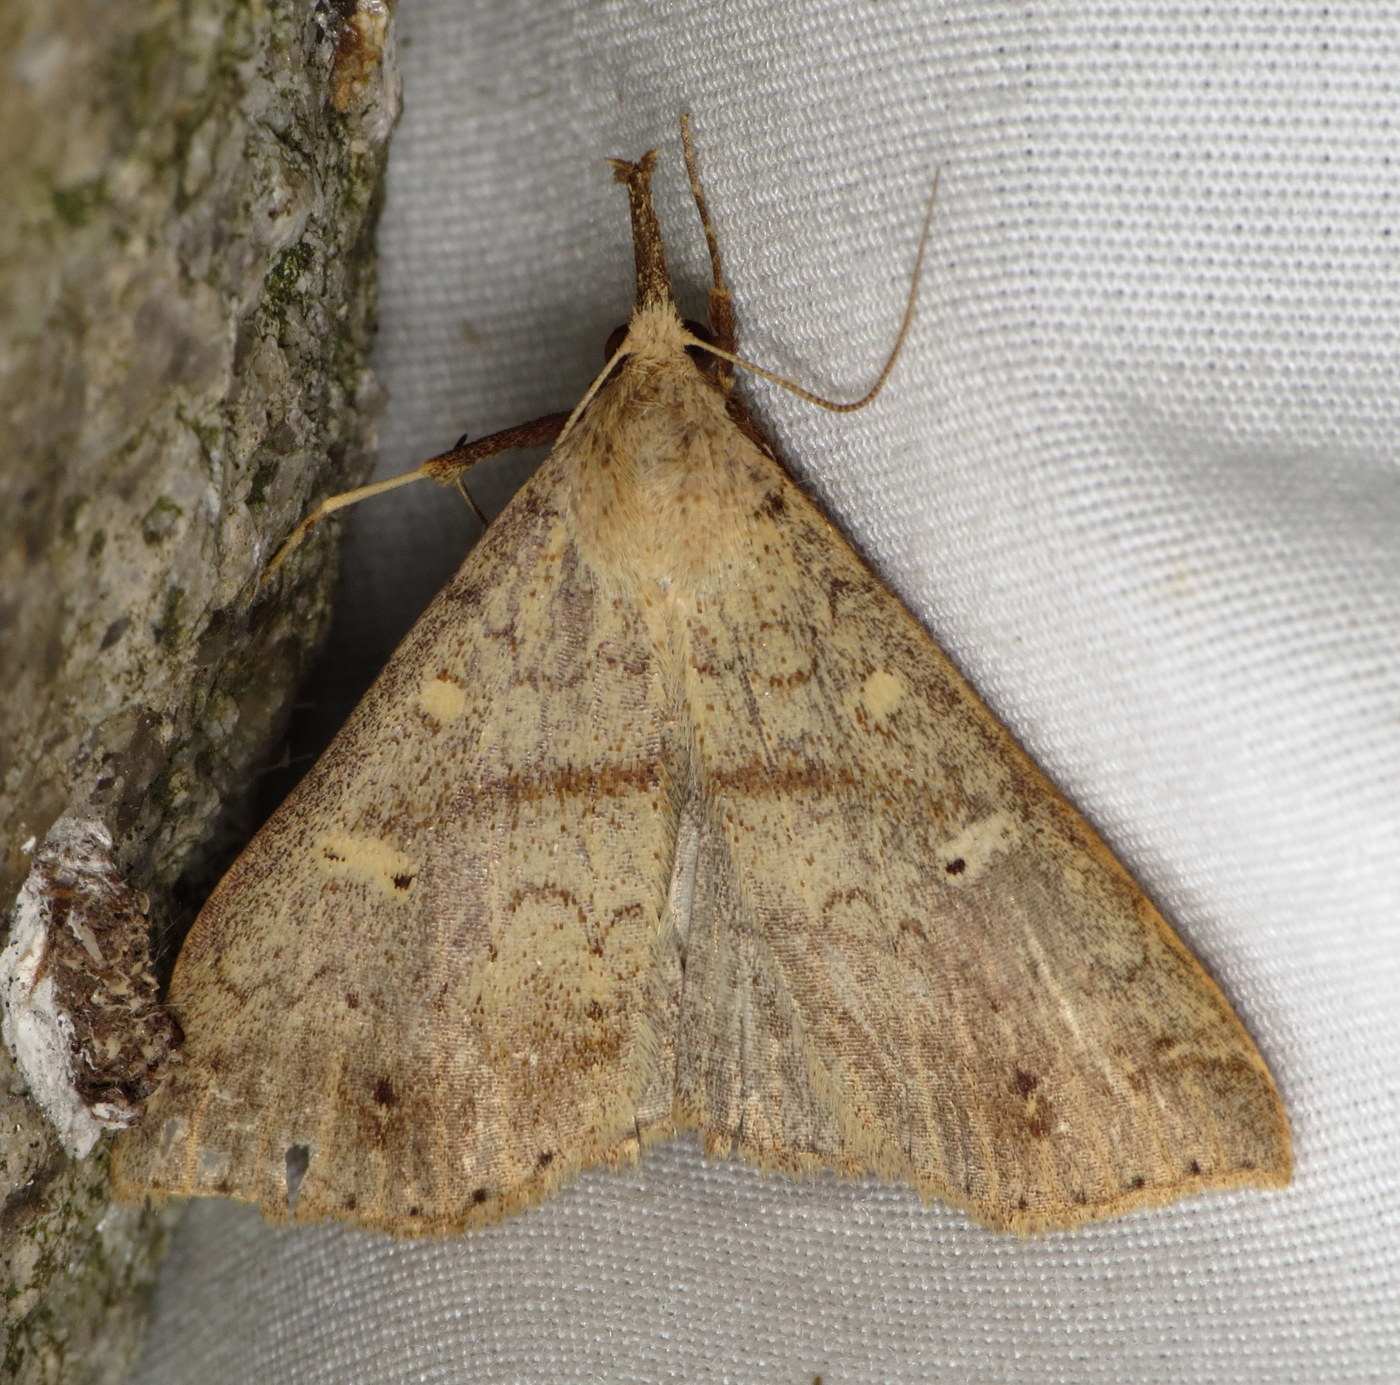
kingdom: Animalia
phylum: Arthropoda
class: Insecta
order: Lepidoptera
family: Erebidae
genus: Renia
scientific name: Renia discoloralis
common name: Discolored renia moth
